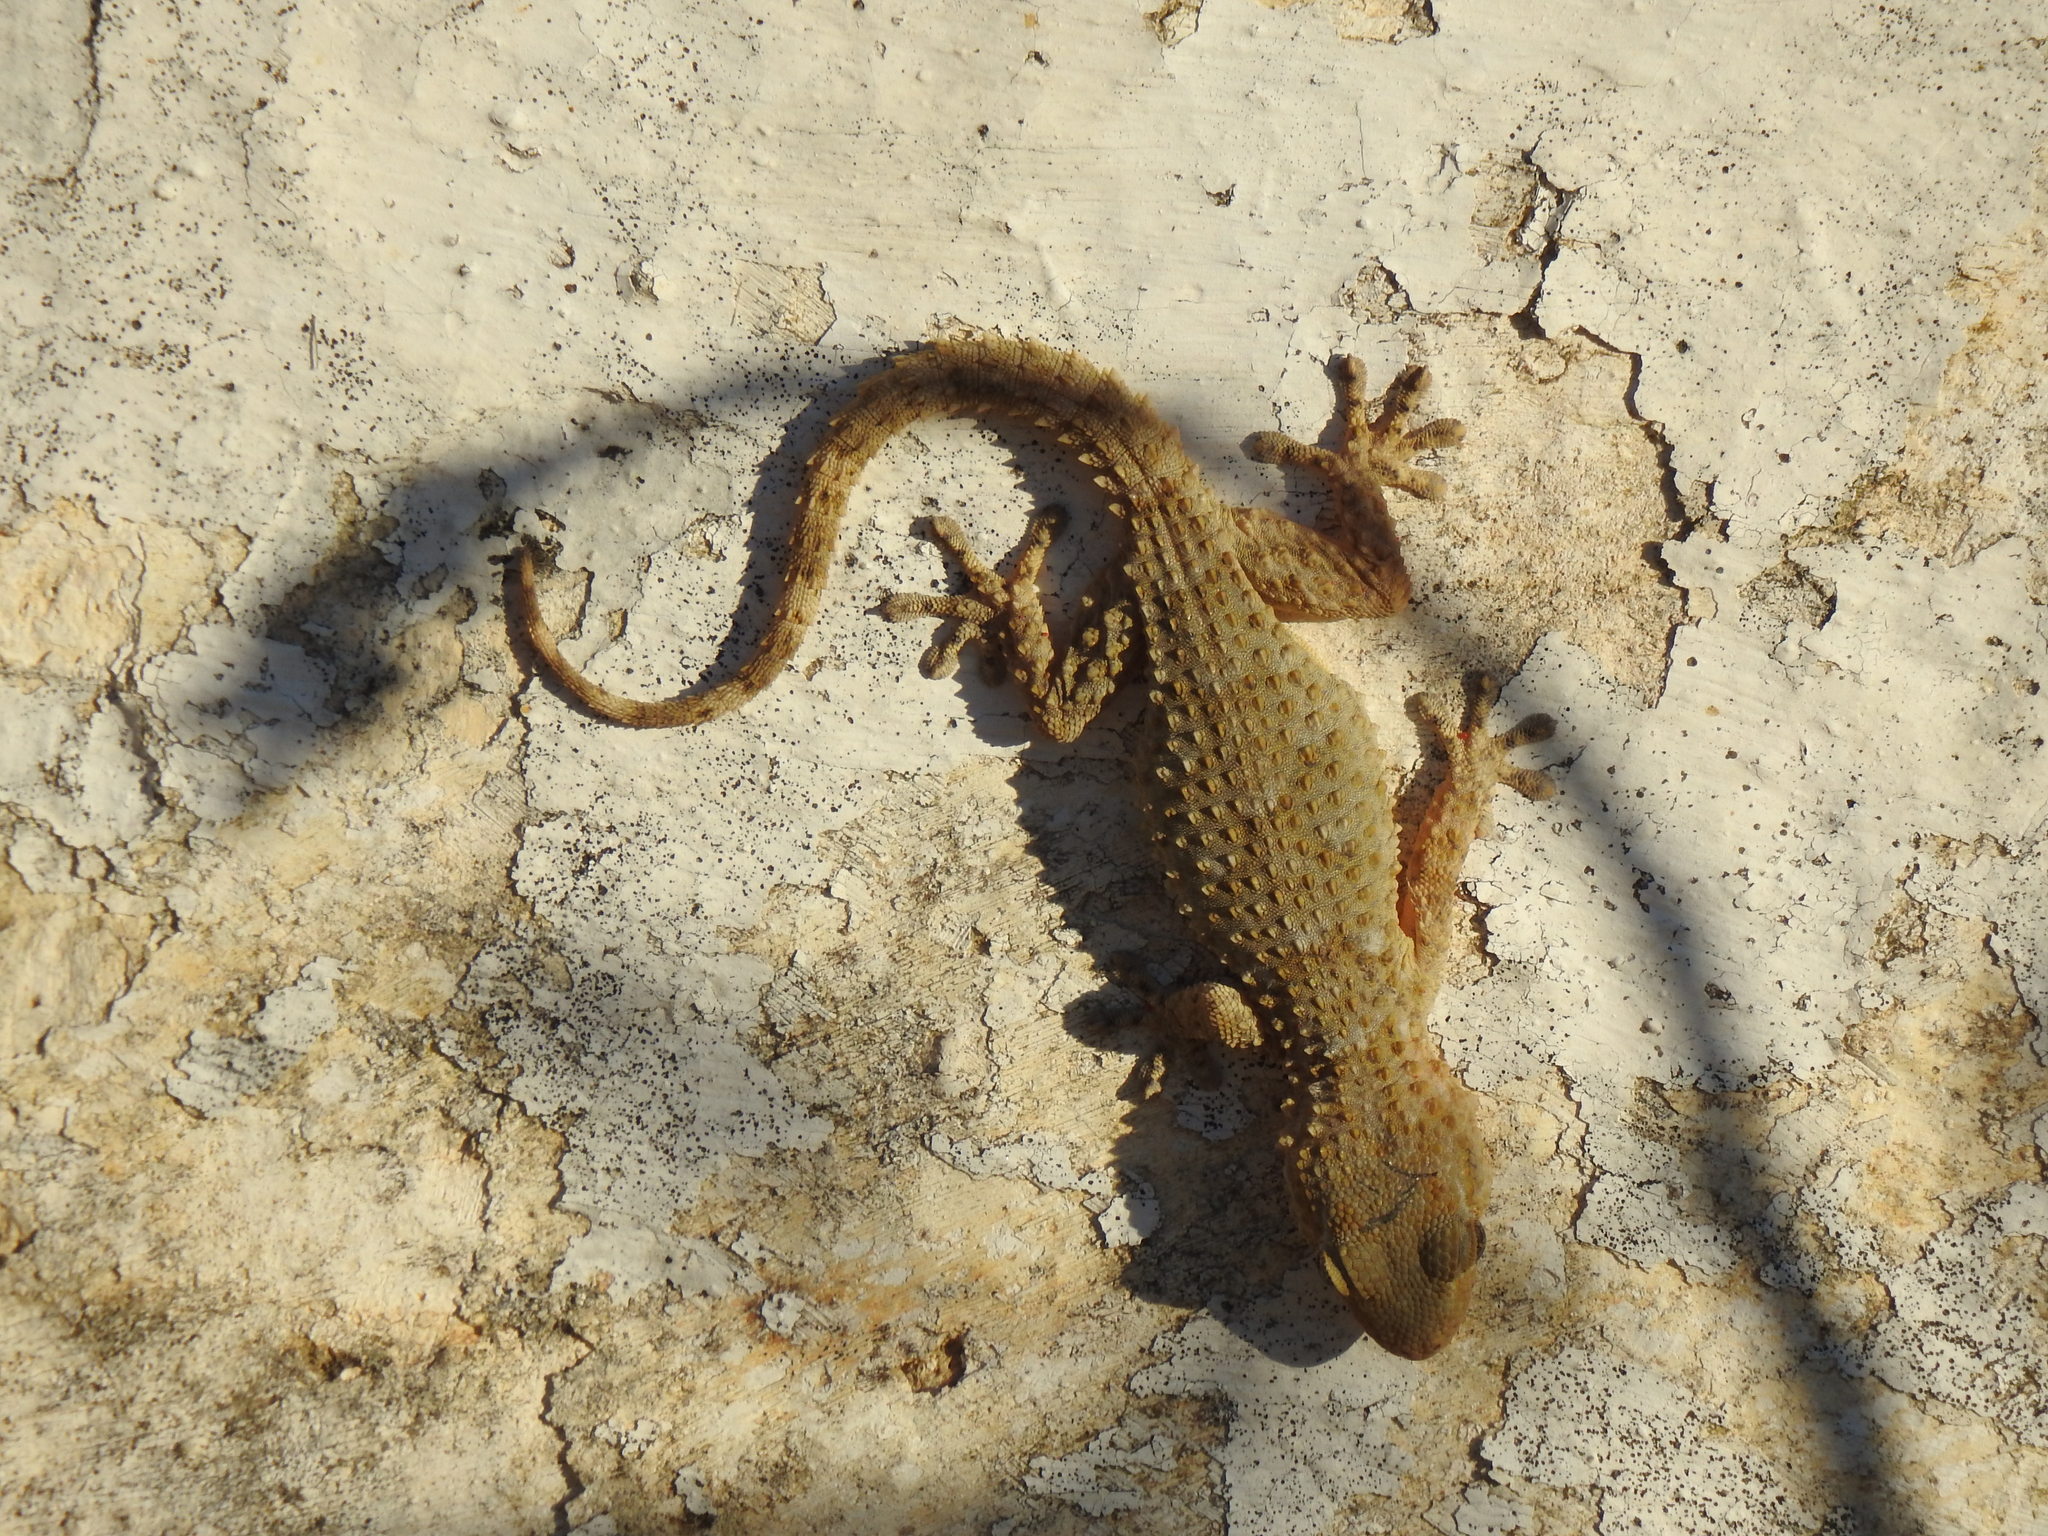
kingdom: Animalia
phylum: Chordata
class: Squamata
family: Phyllodactylidae
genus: Tarentola
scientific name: Tarentola mauritanica
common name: Moorish gecko
